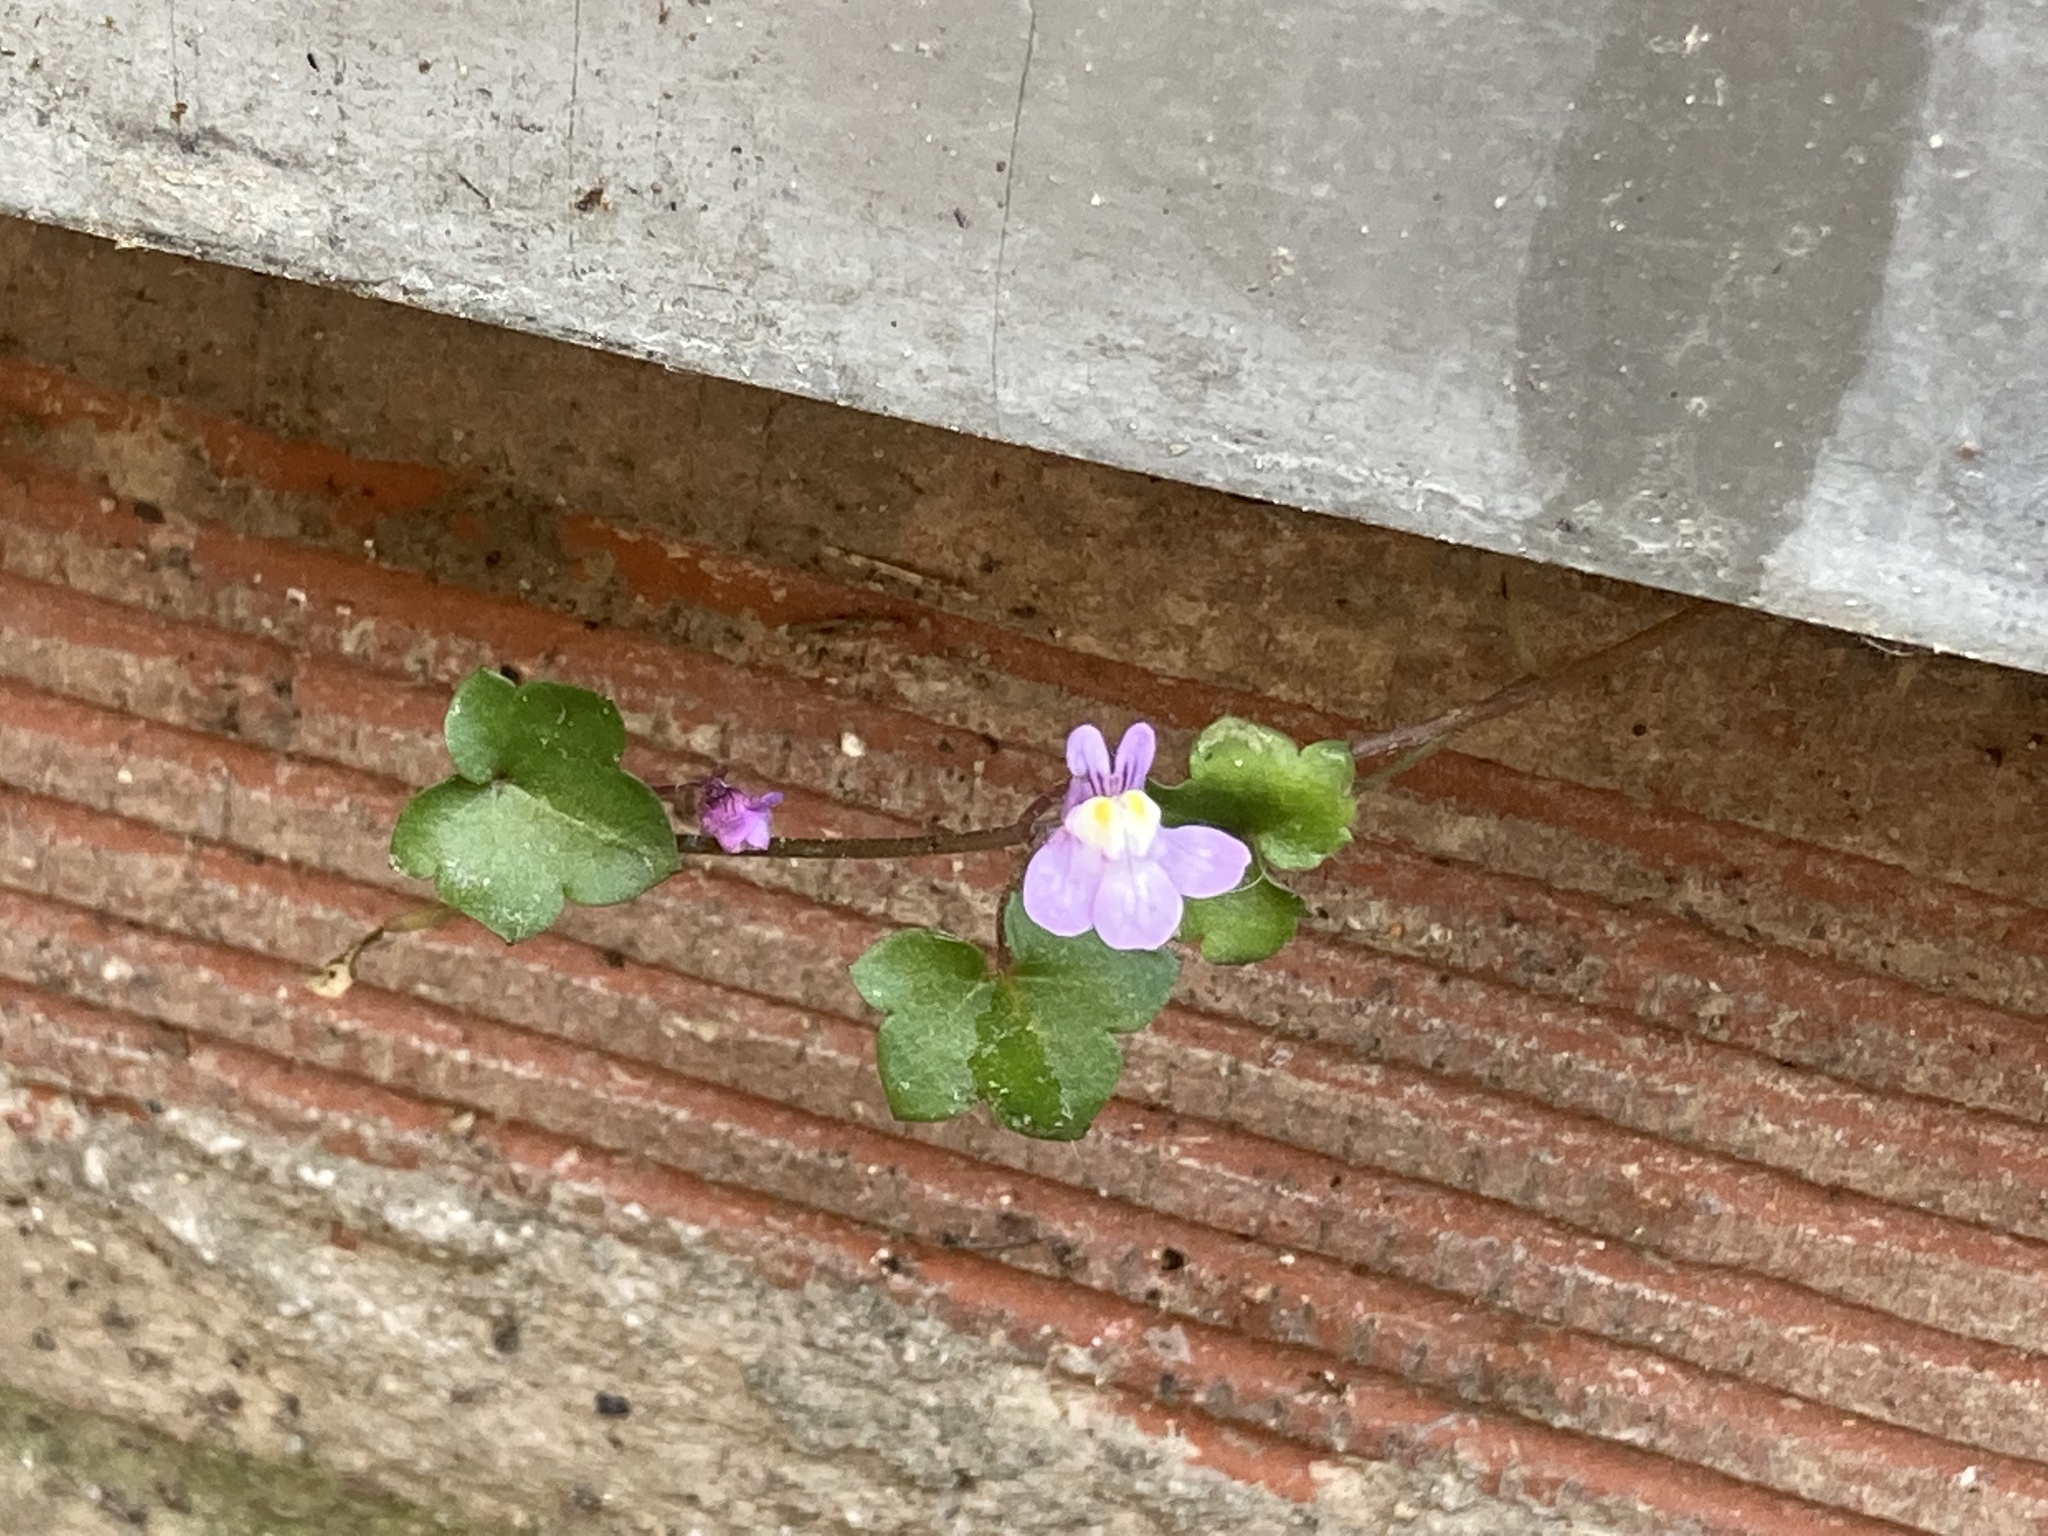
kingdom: Plantae
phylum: Tracheophyta
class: Magnoliopsida
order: Lamiales
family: Plantaginaceae
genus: Cymbalaria
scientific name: Cymbalaria muralis
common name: Ivy-leaved toadflax
